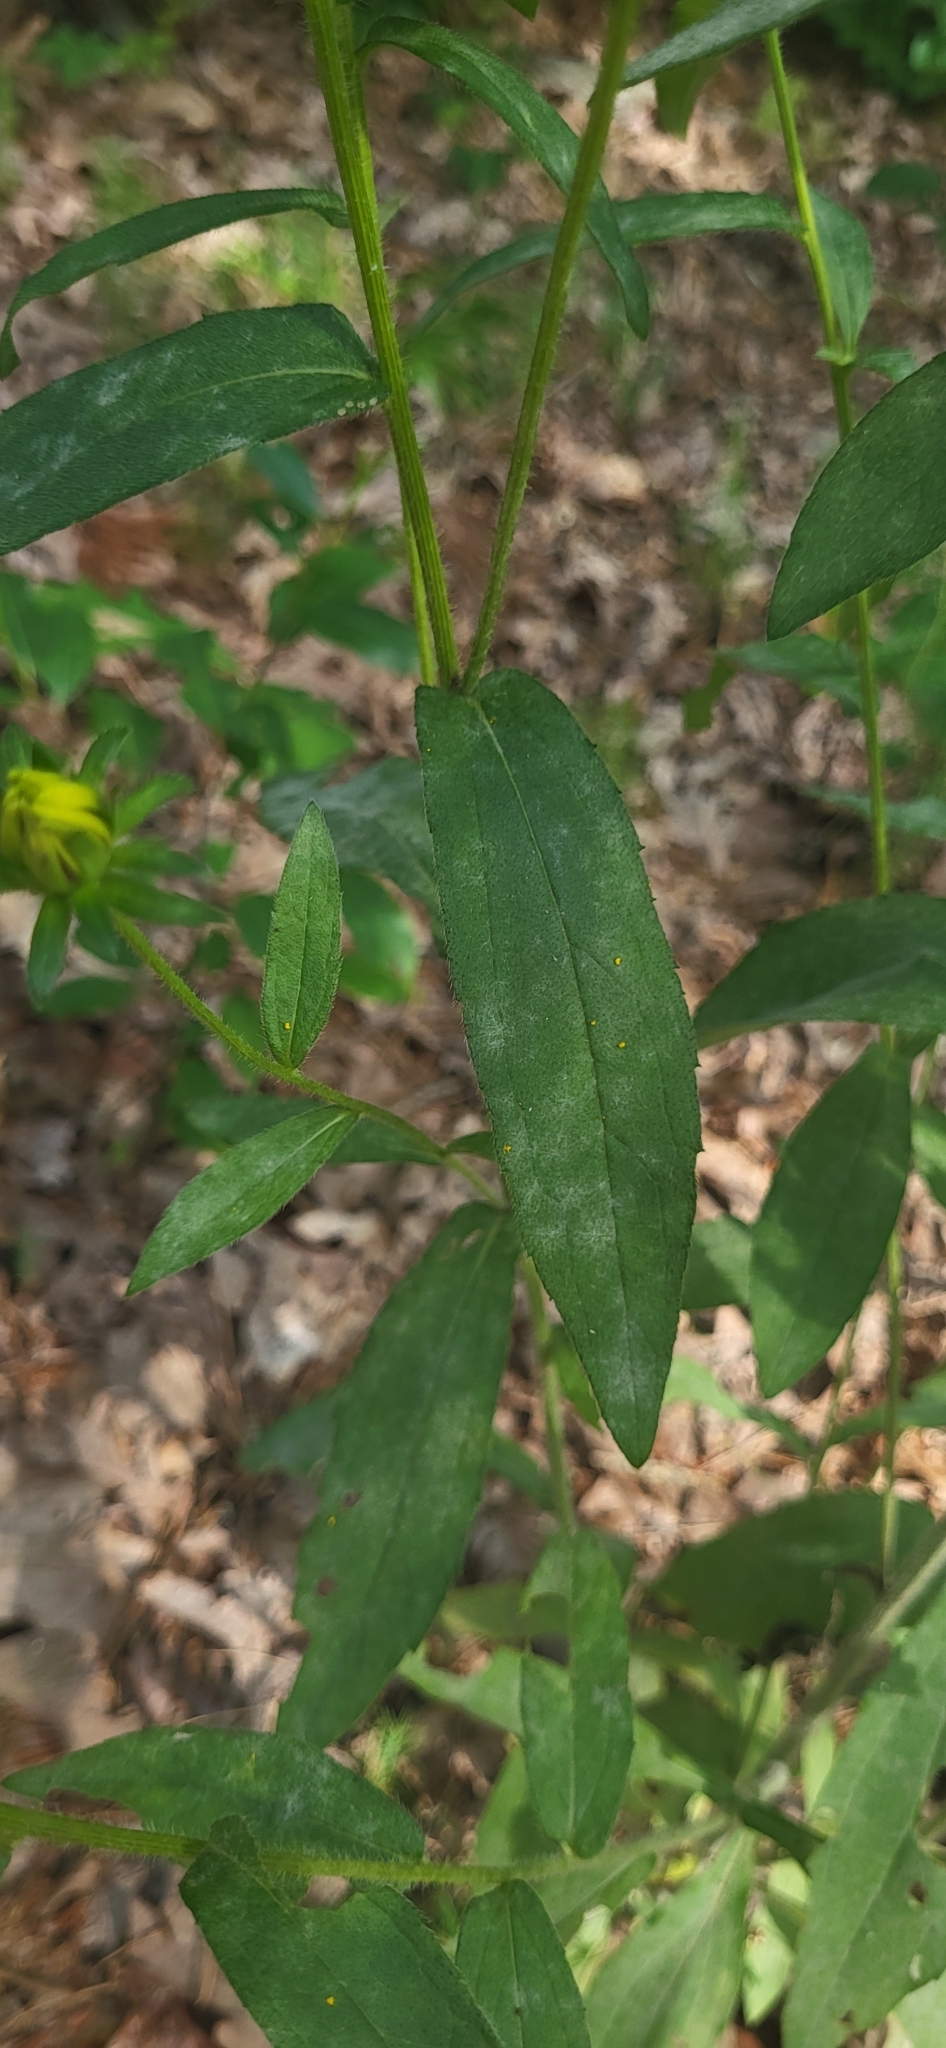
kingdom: Plantae
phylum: Tracheophyta
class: Magnoliopsida
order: Asterales
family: Asteraceae
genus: Rudbeckia
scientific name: Rudbeckia hirta
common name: Black-eyed-susan
